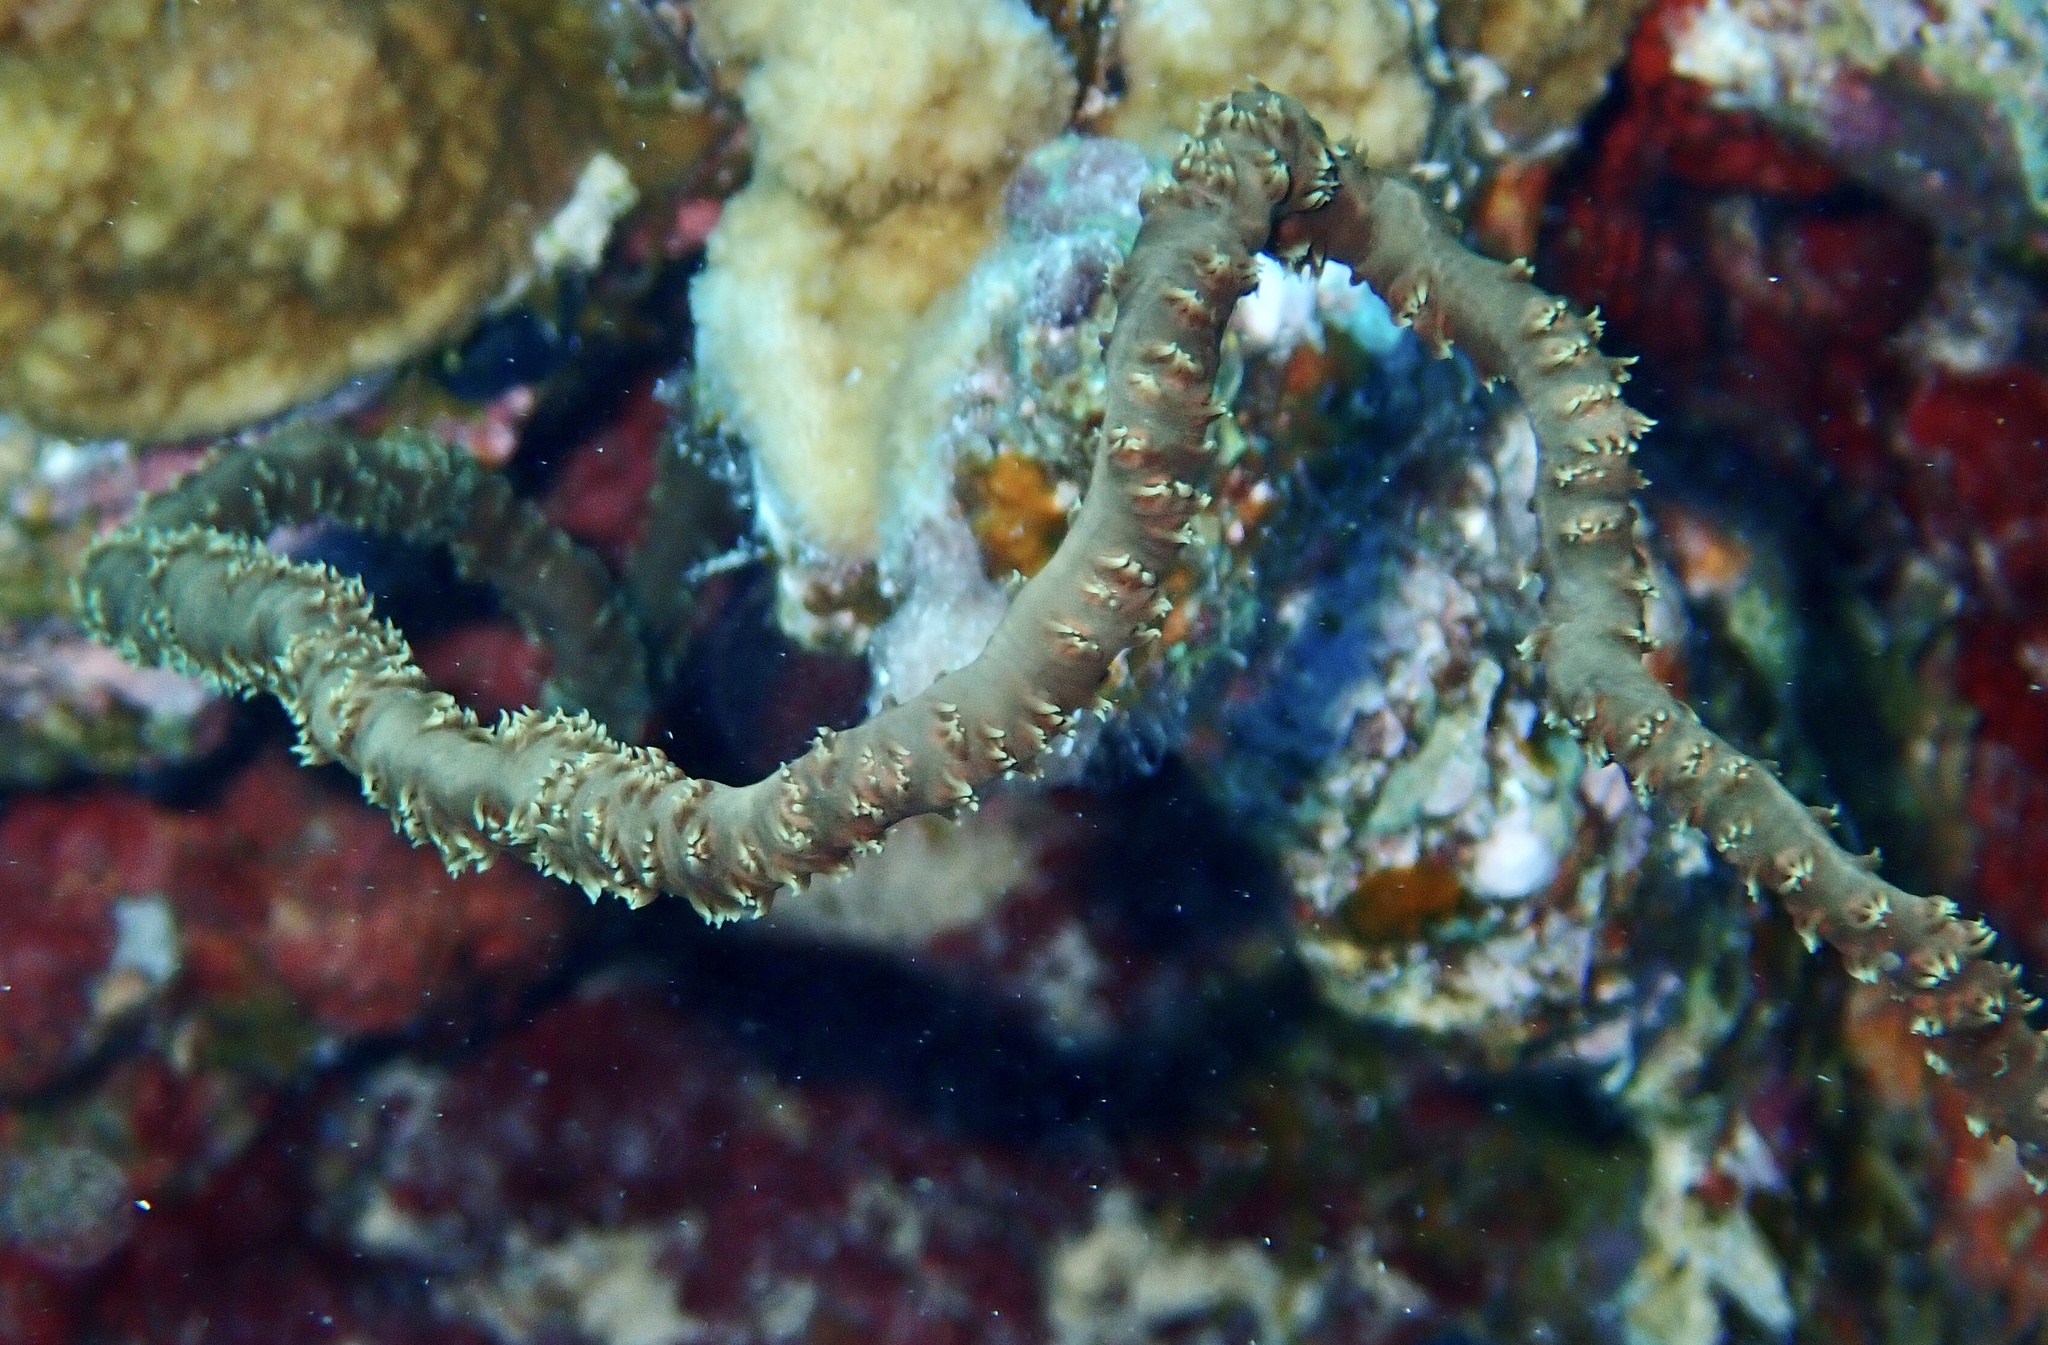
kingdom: Animalia
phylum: Cnidaria
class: Anthozoa
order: Antipatharia
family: Antipathidae
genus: Cirrhipathes
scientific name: Cirrhipathes
